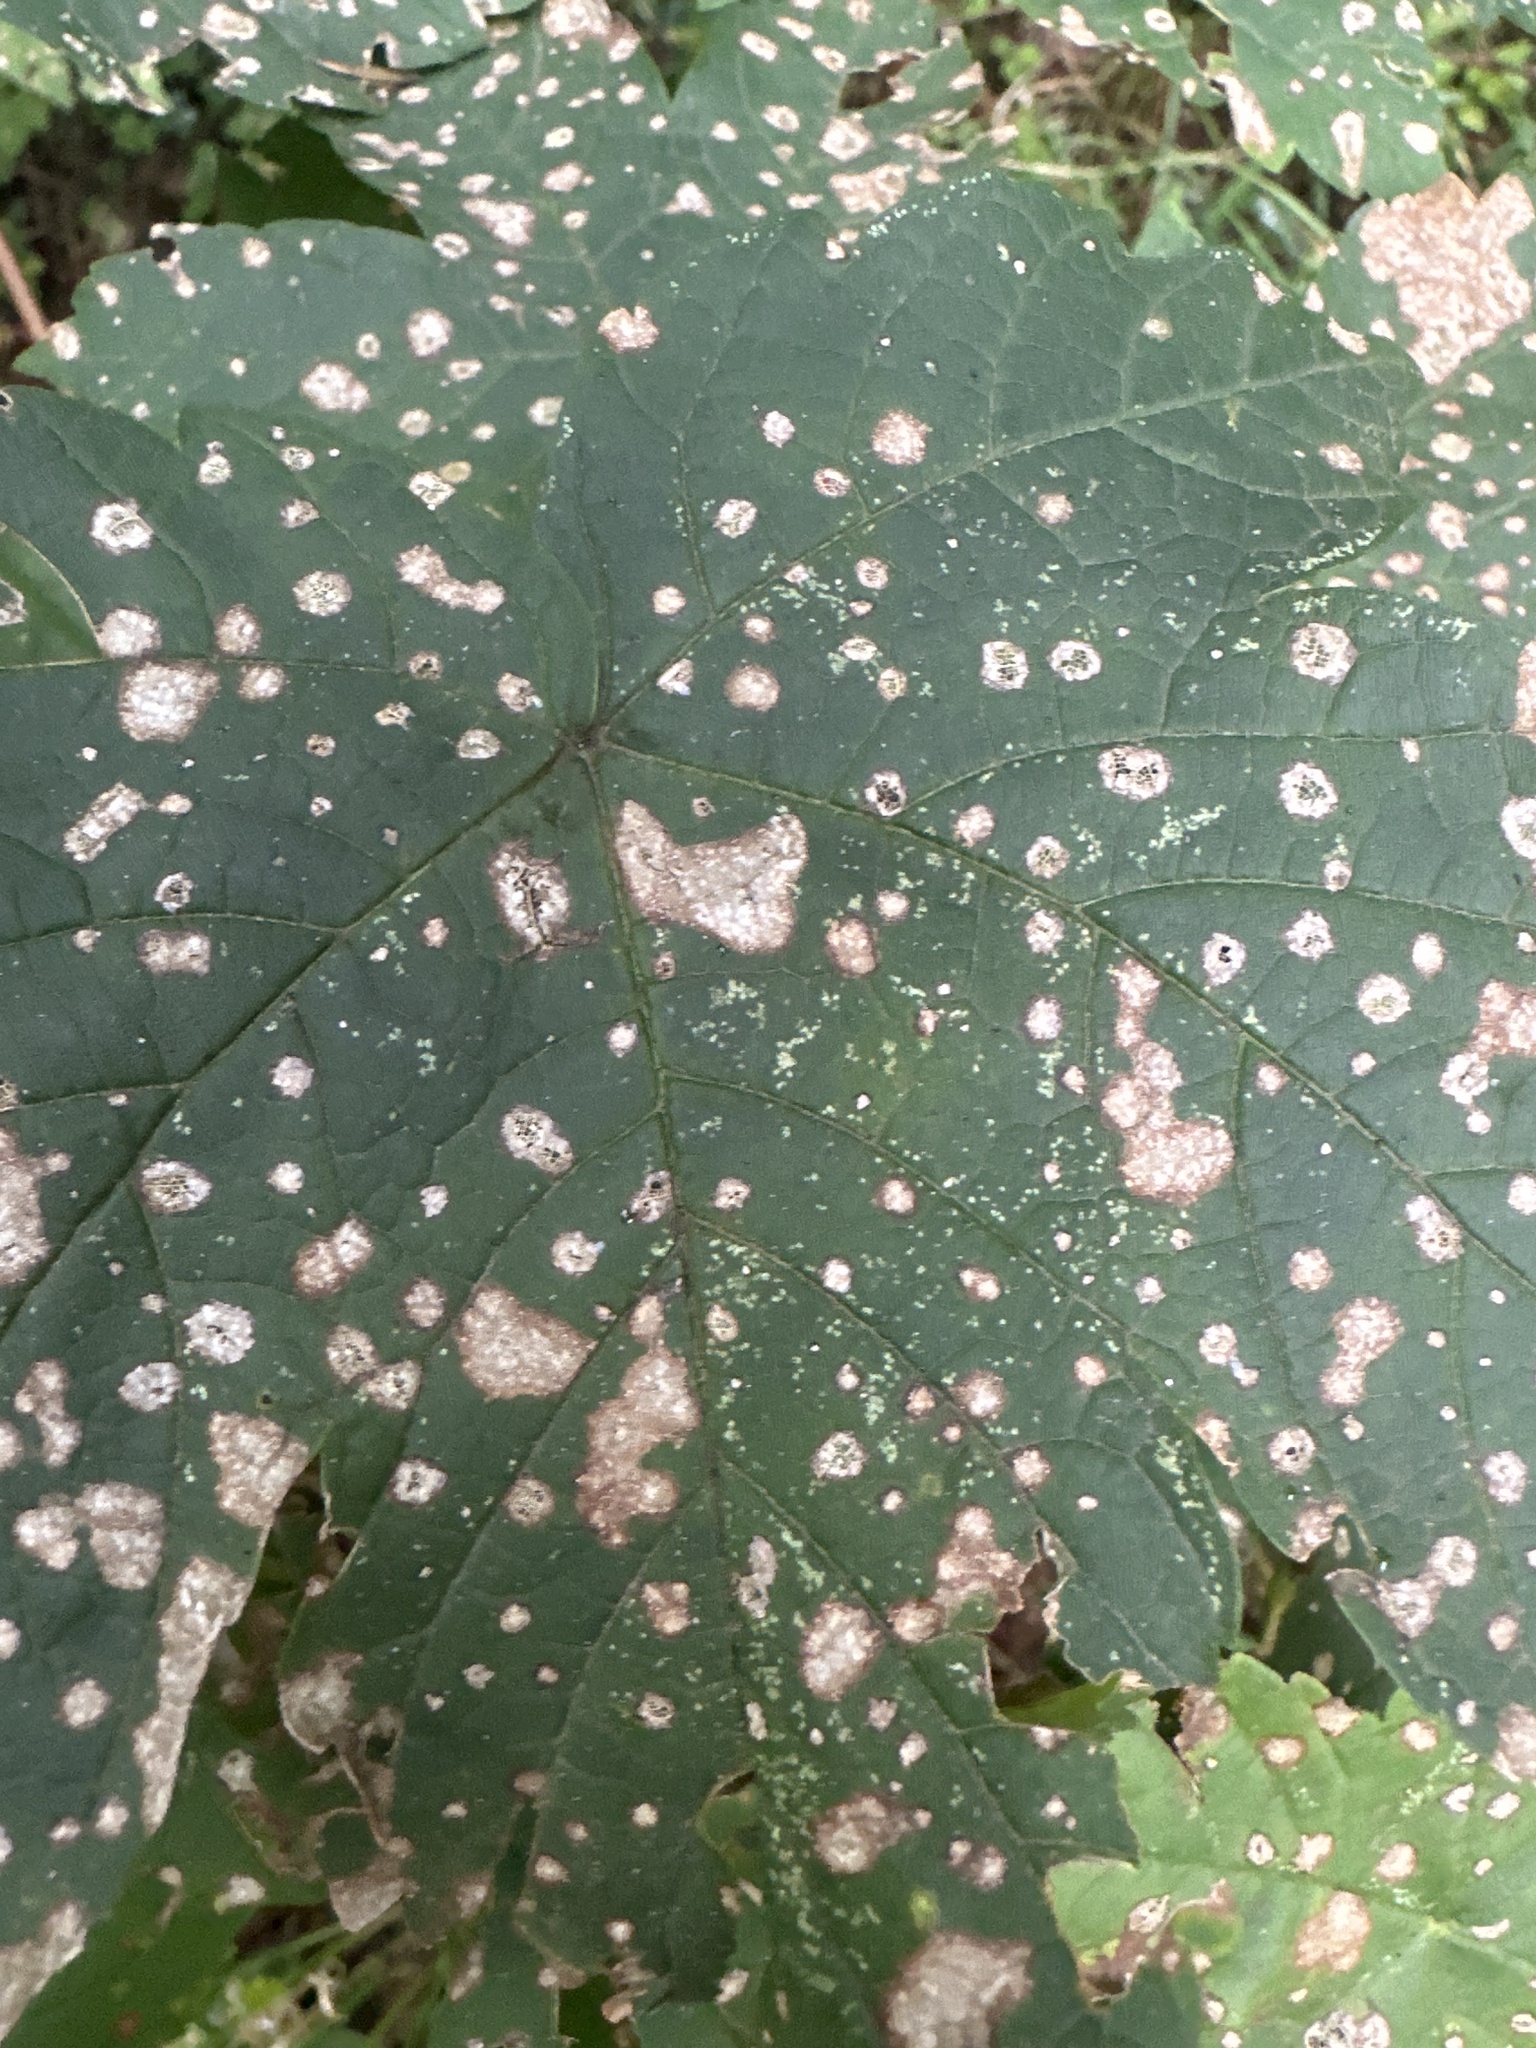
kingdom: Plantae
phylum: Tracheophyta
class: Magnoliopsida
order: Sapindales
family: Sapindaceae
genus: Acer
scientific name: Acer pseudoplatanus
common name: Sycamore
